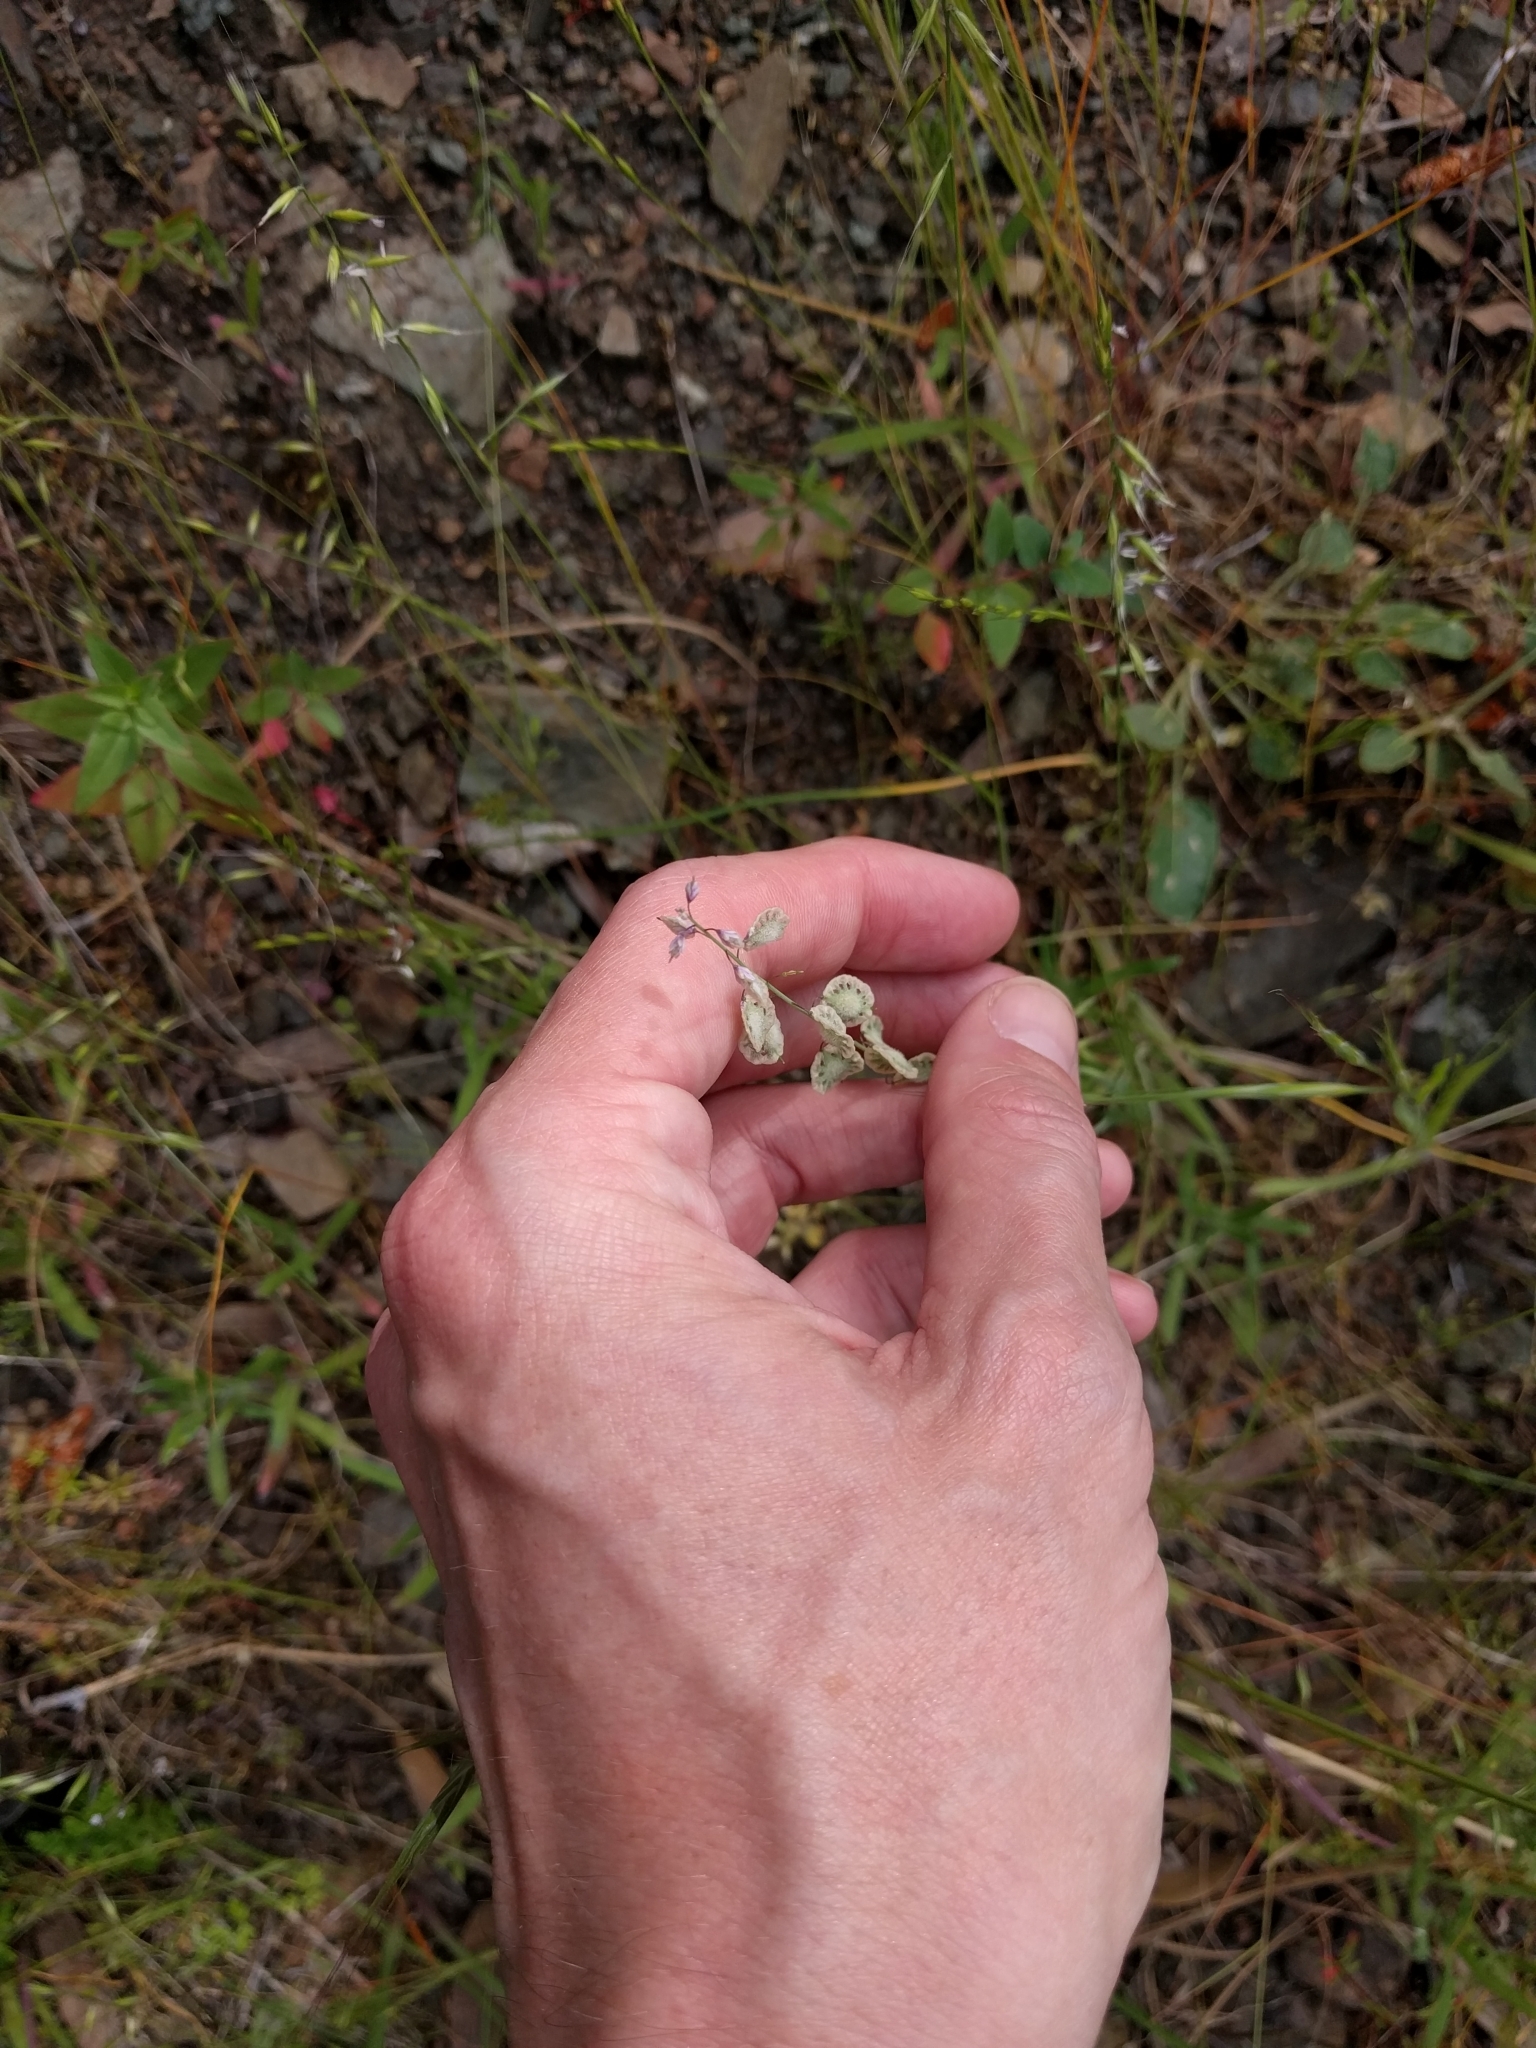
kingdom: Plantae
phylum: Tracheophyta
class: Magnoliopsida
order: Brassicales
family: Brassicaceae
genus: Thysanocarpus
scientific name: Thysanocarpus curvipes
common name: Sand fringepod
